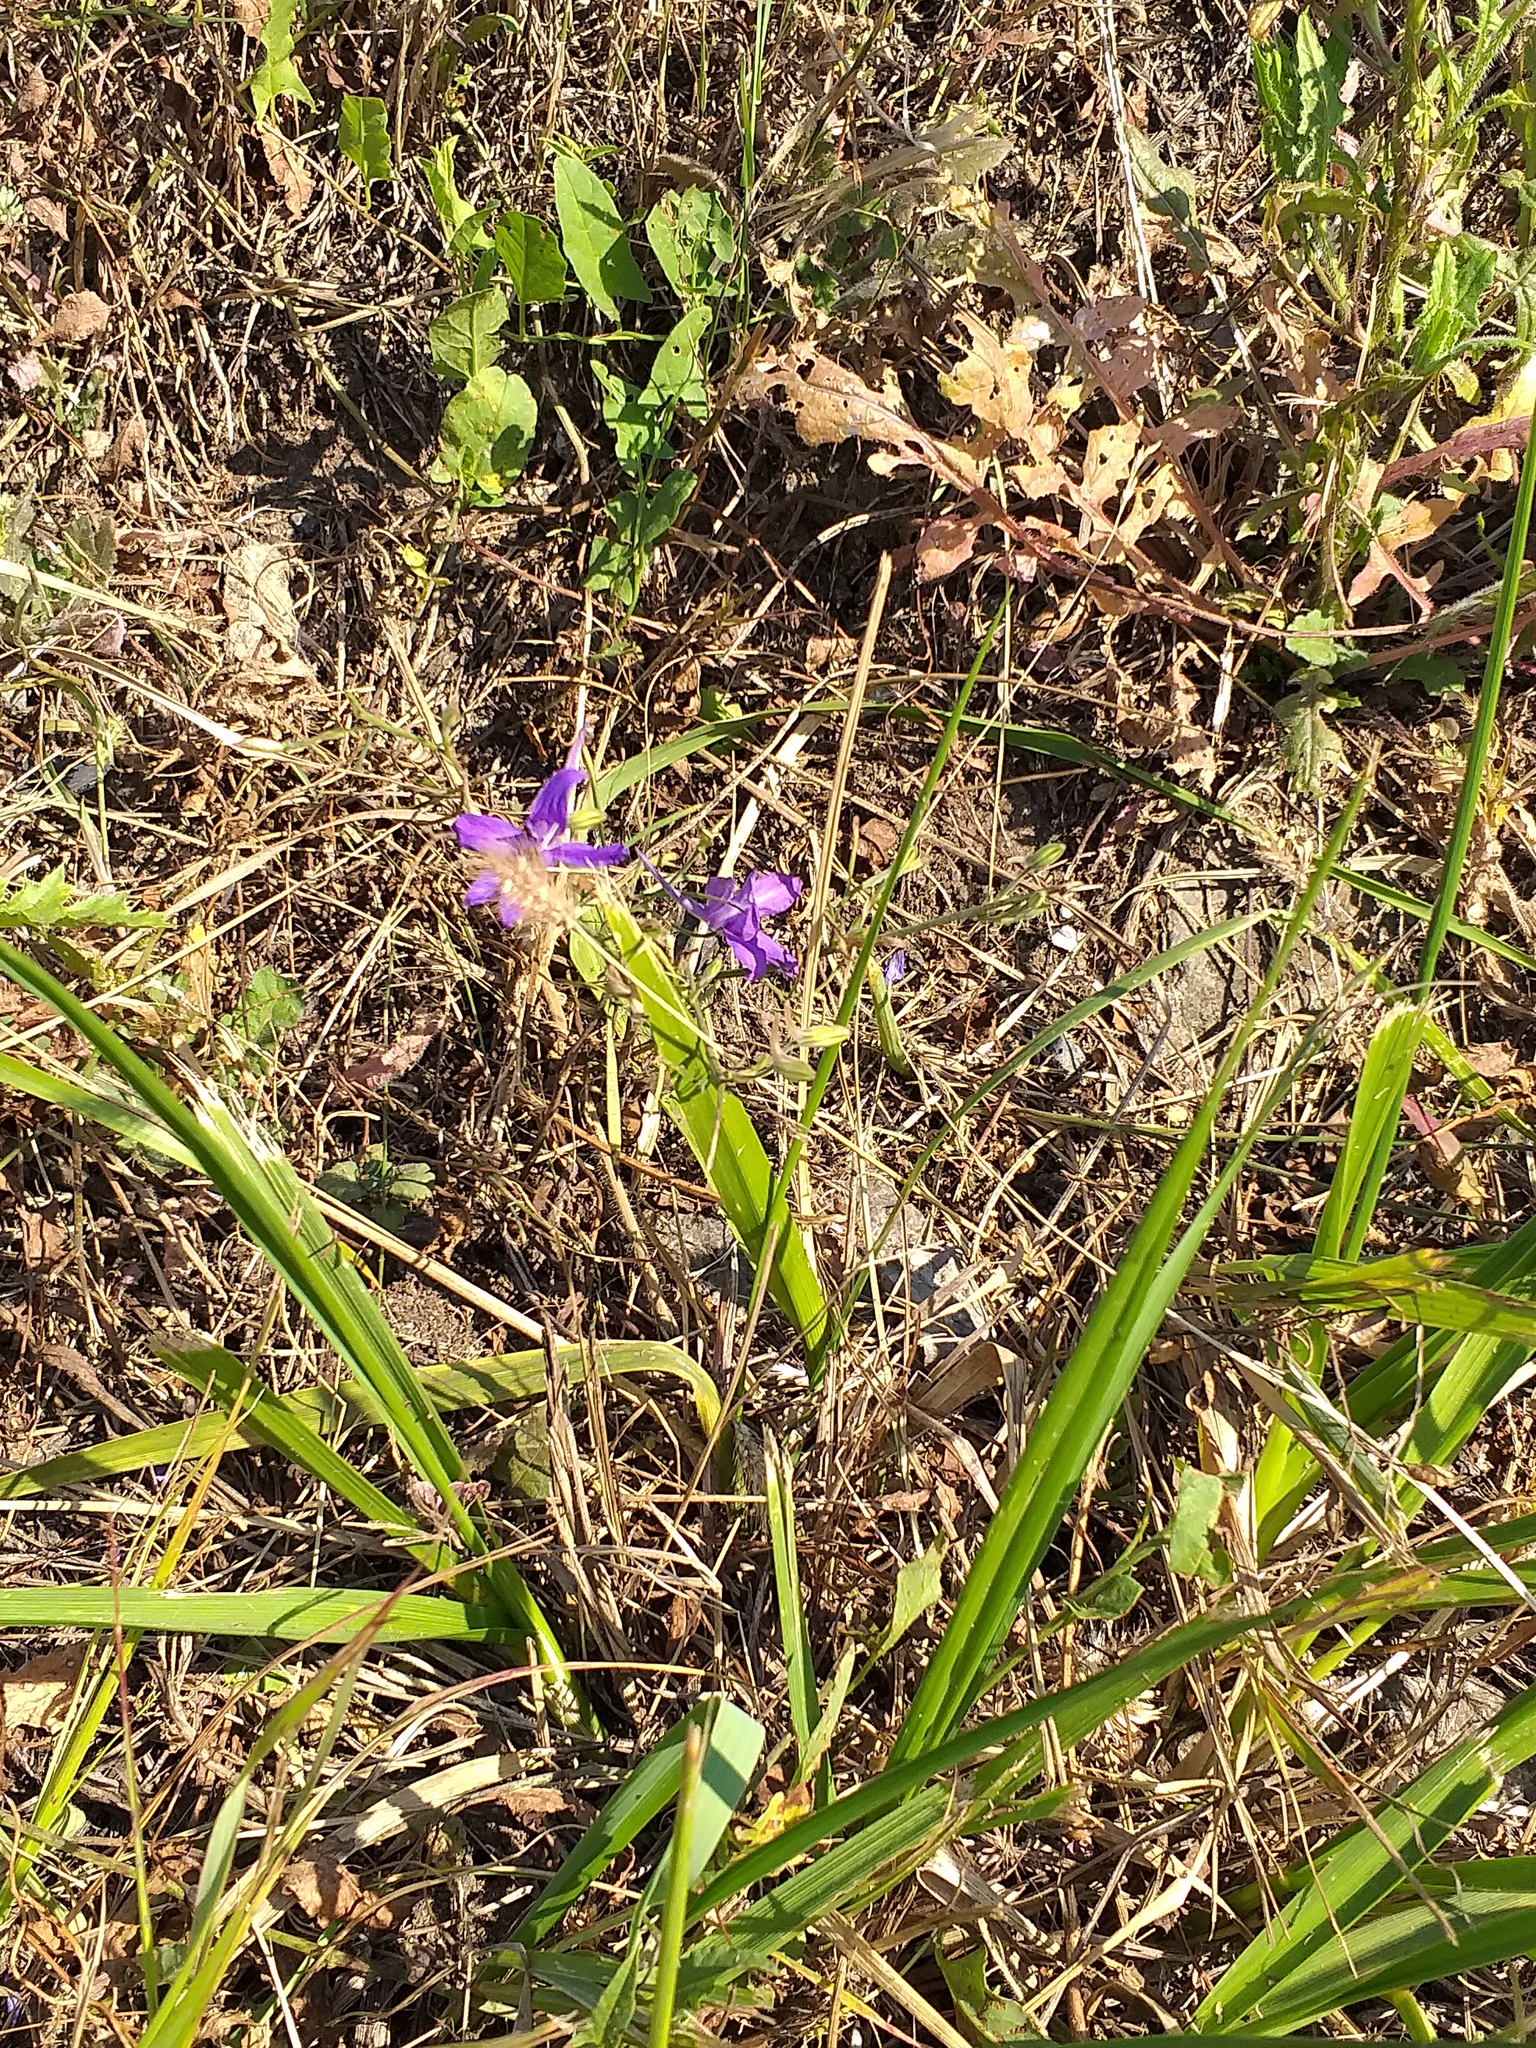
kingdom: Plantae
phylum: Tracheophyta
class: Magnoliopsida
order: Ranunculales
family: Ranunculaceae
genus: Delphinium
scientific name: Delphinium consolida
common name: Branching larkspur
